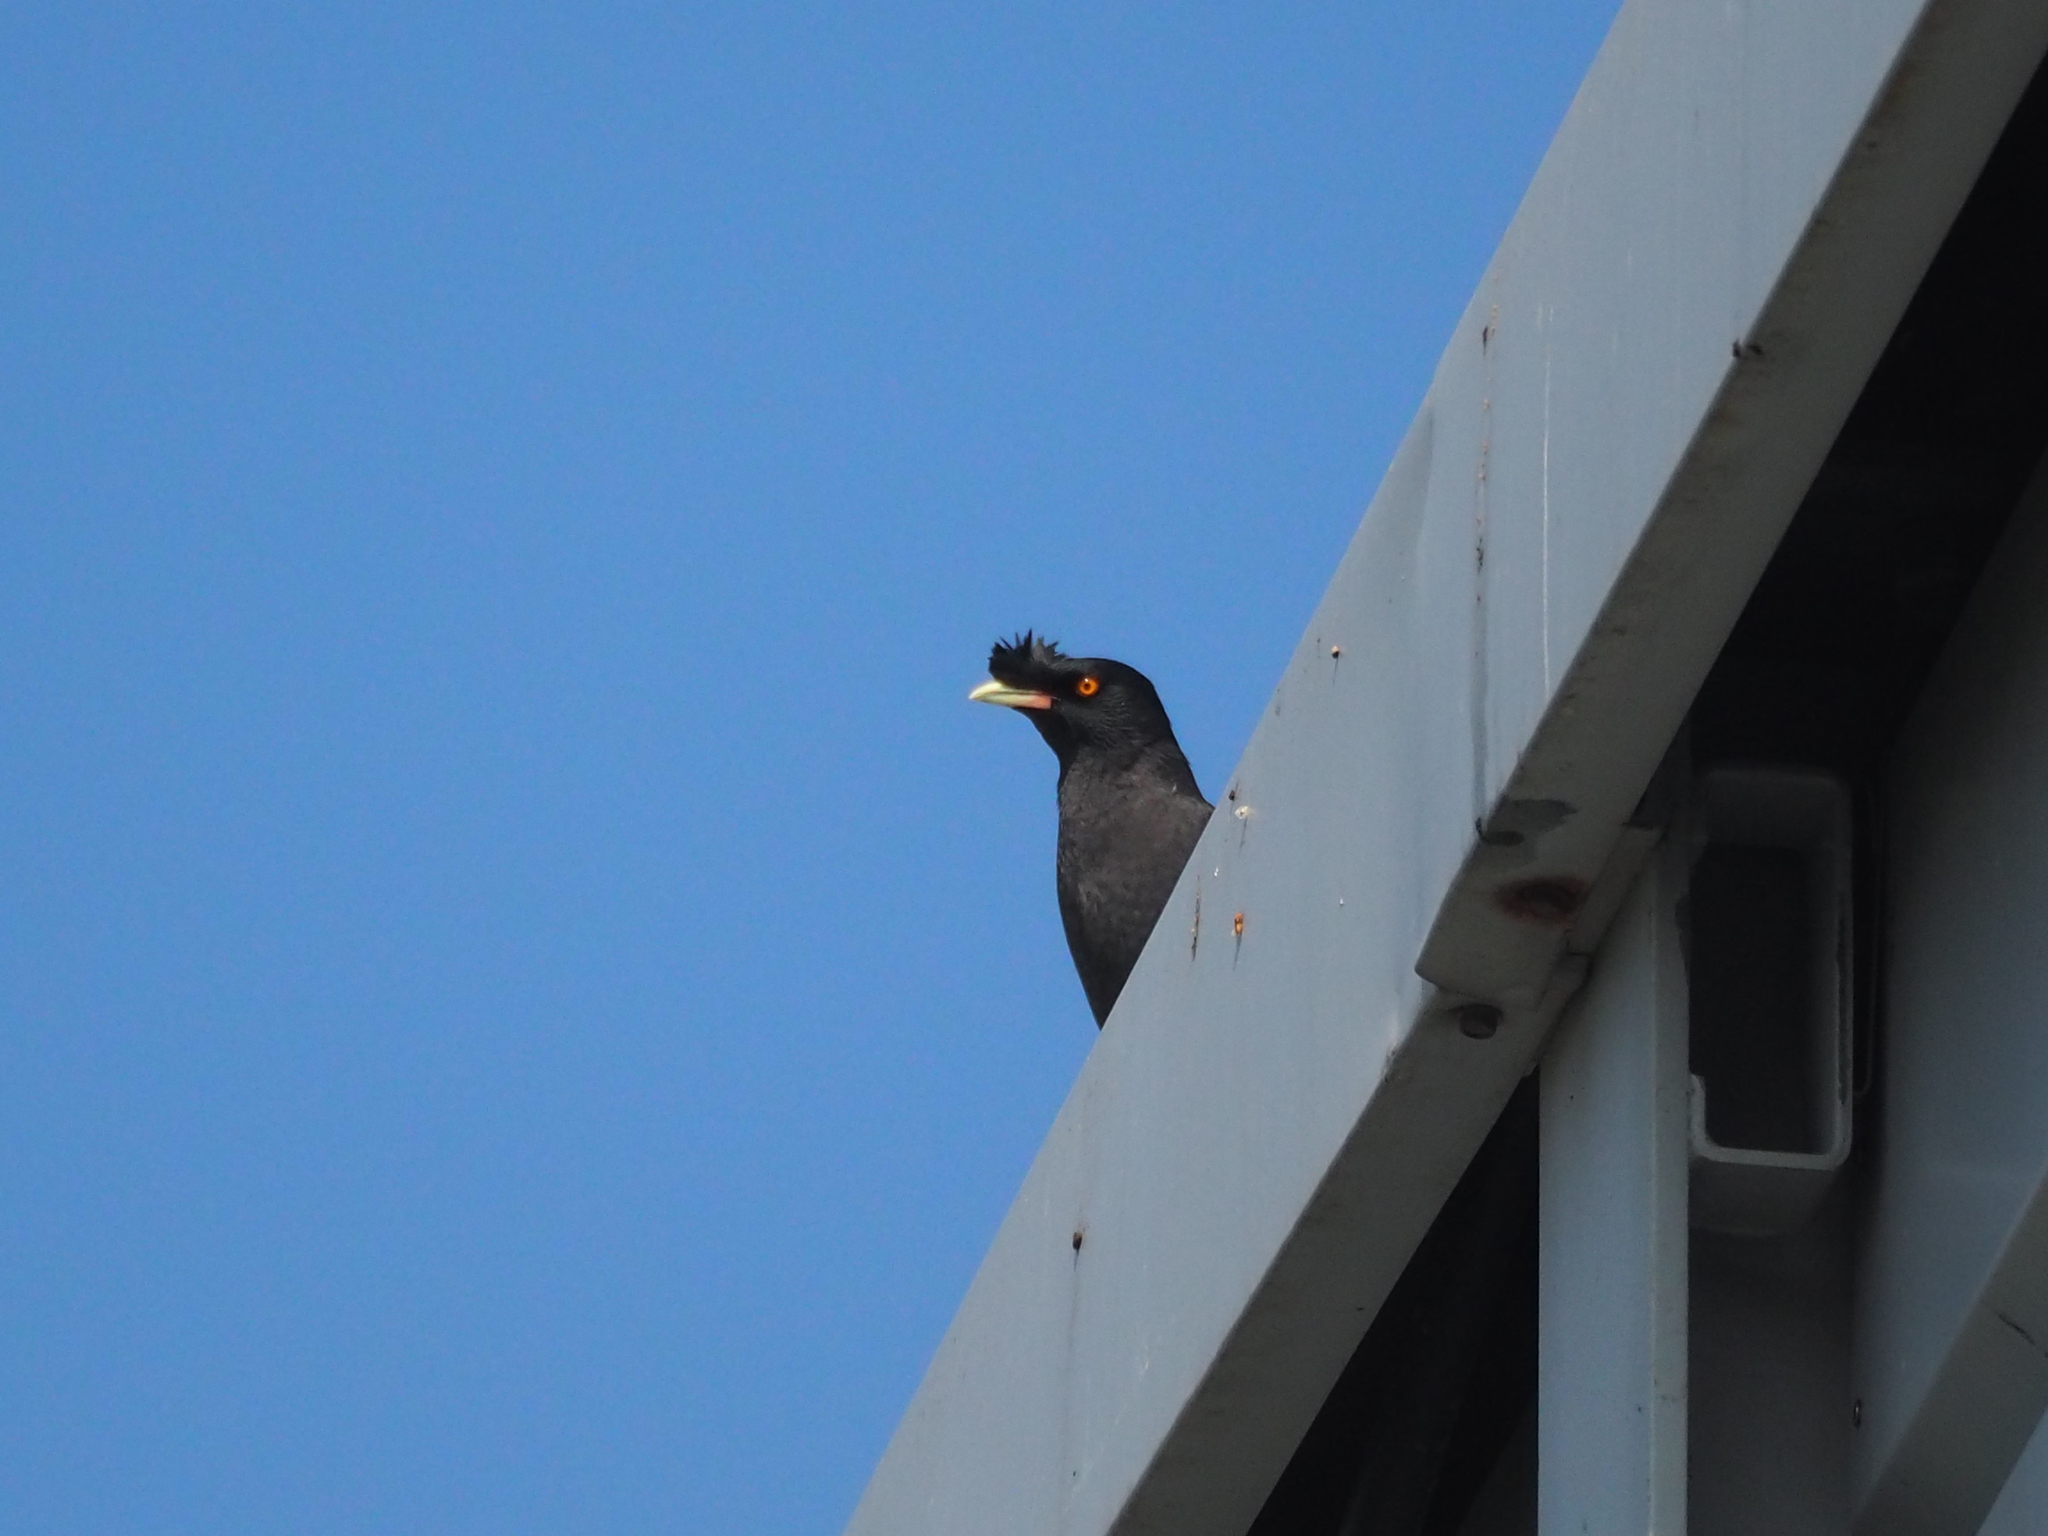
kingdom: Animalia
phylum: Chordata
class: Aves
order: Passeriformes
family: Sturnidae
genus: Acridotheres
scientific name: Acridotheres cristatellus
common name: Crested myna
